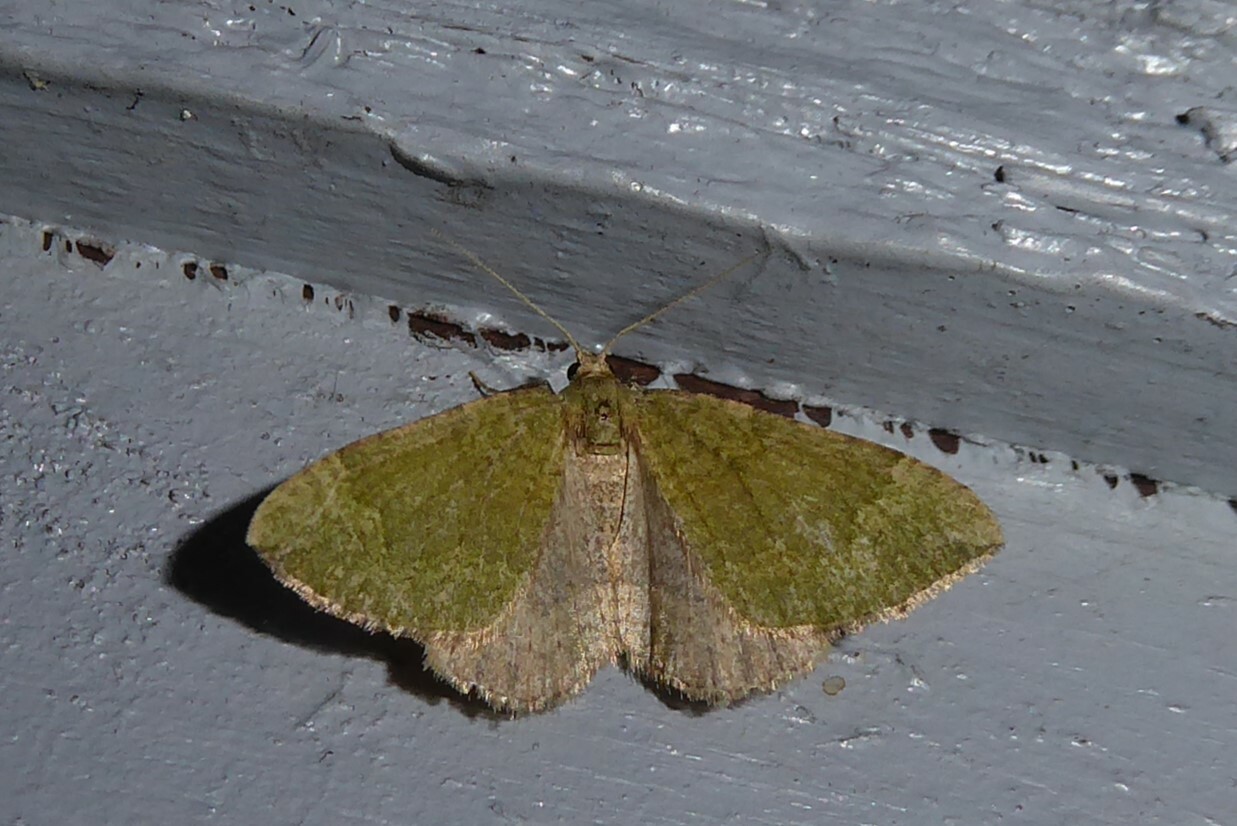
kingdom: Animalia
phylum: Arthropoda
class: Insecta
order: Lepidoptera
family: Geometridae
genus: Epyaxa
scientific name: Epyaxa rosearia
